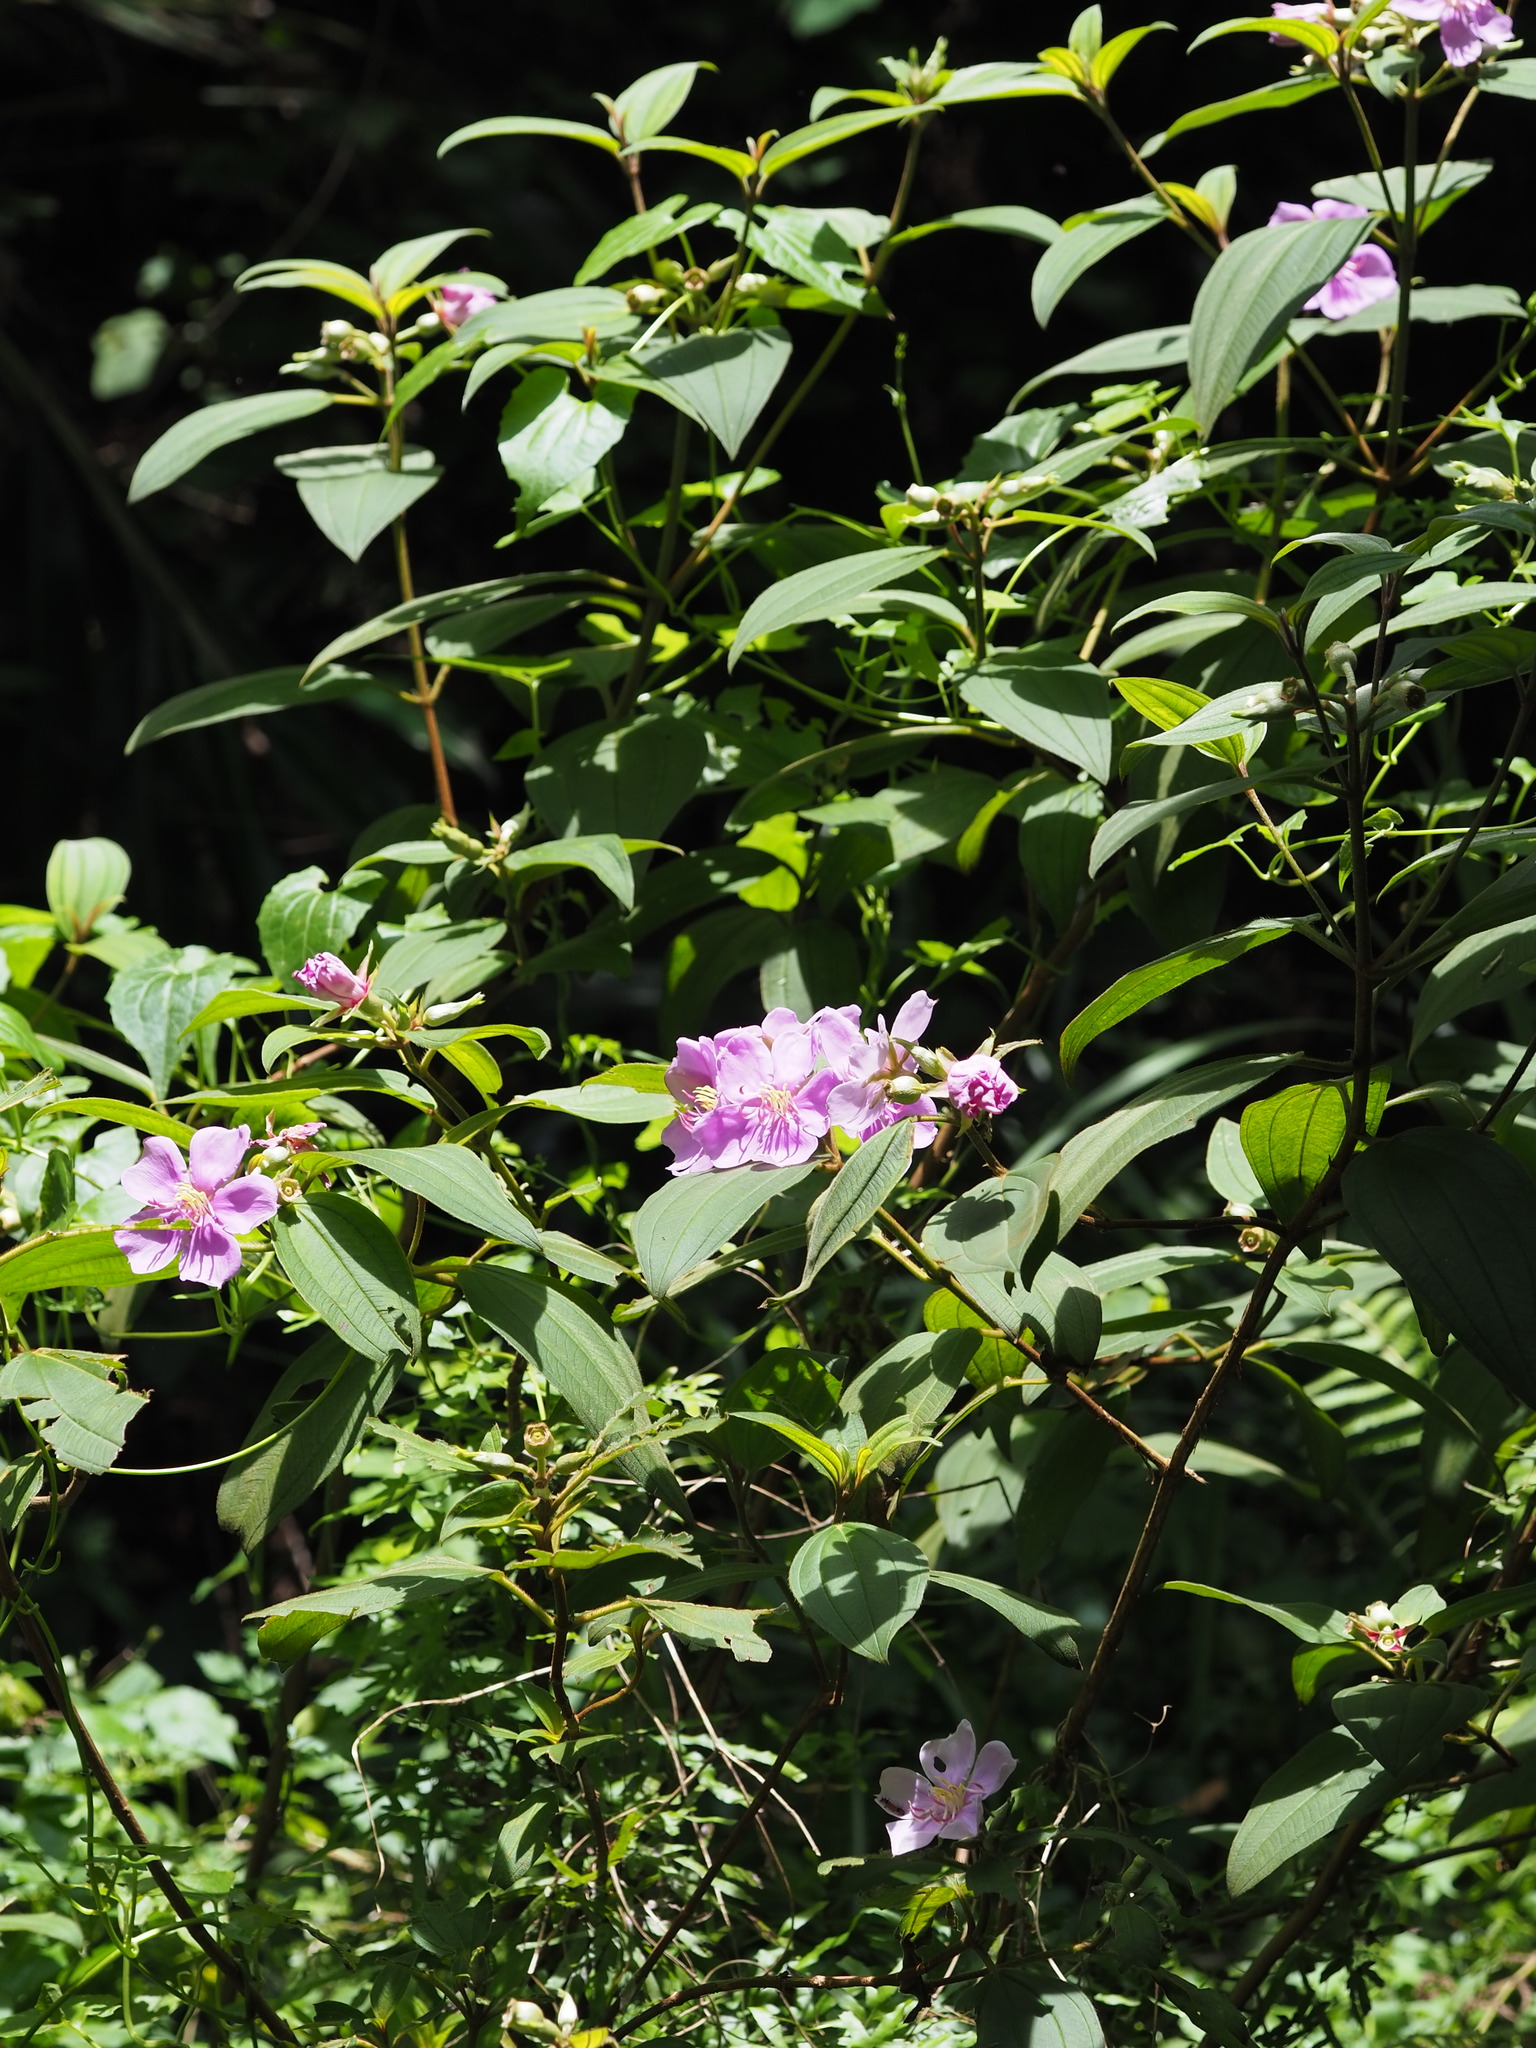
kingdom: Plantae
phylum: Tracheophyta
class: Magnoliopsida
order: Myrtales
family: Melastomataceae
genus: Melastoma
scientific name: Melastoma malabathricum
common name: Indian-rhododendron
